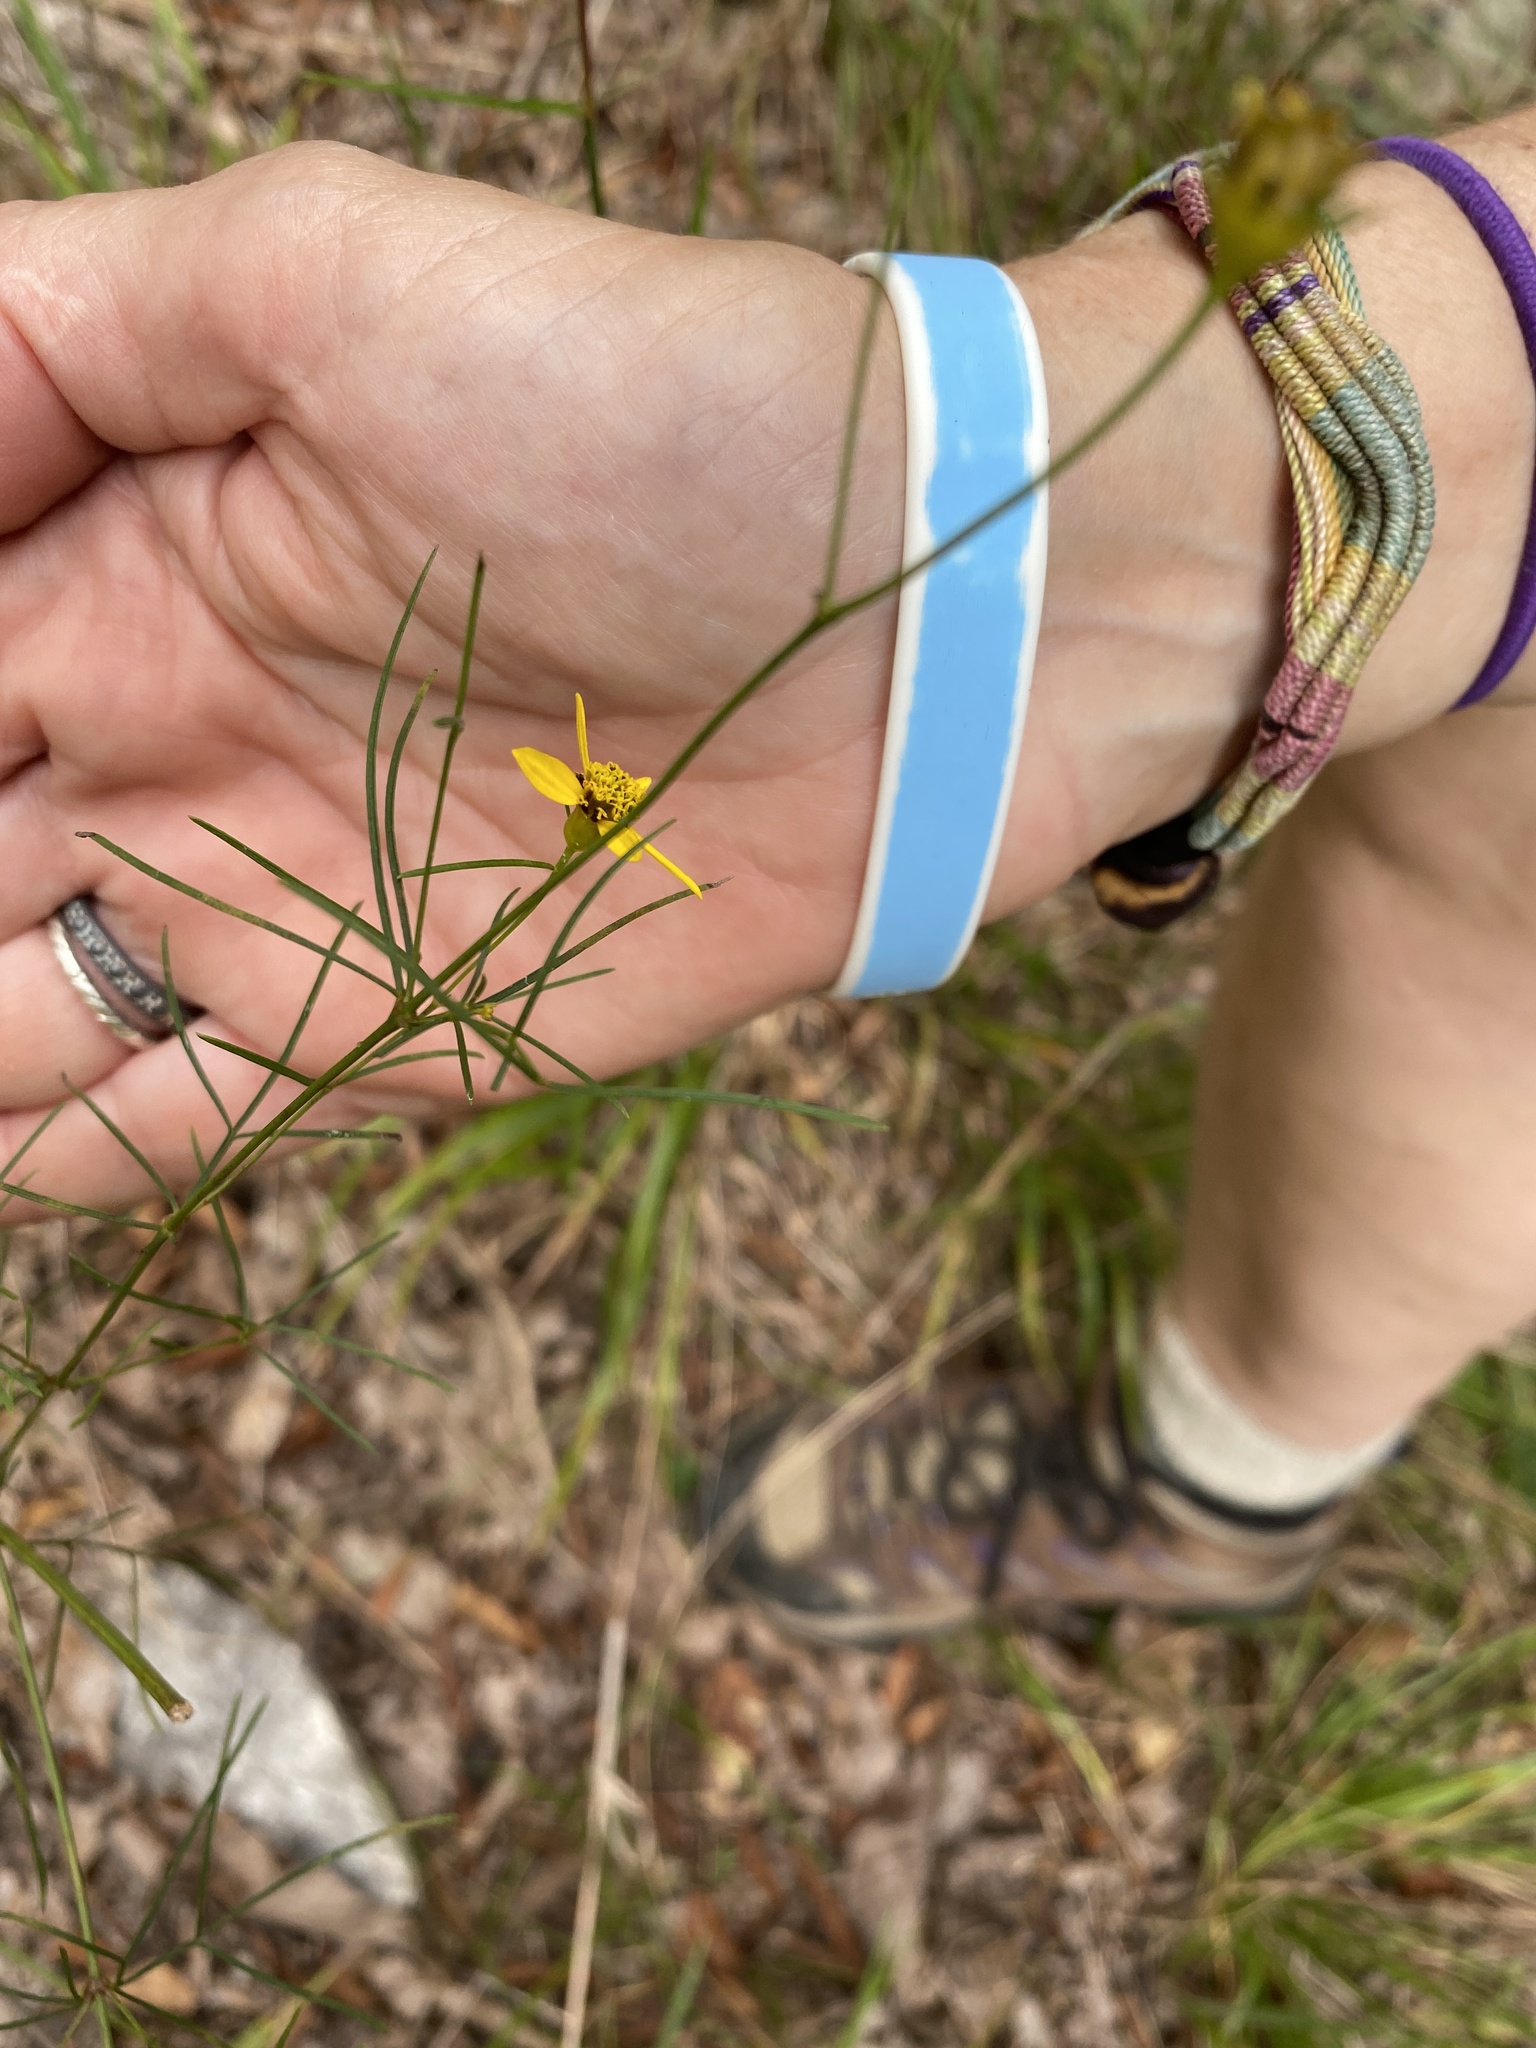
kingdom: Plantae
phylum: Tracheophyta
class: Magnoliopsida
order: Asterales
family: Asteraceae
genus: Coreopsis
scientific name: Coreopsis verticillata
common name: Whorled tickseed
